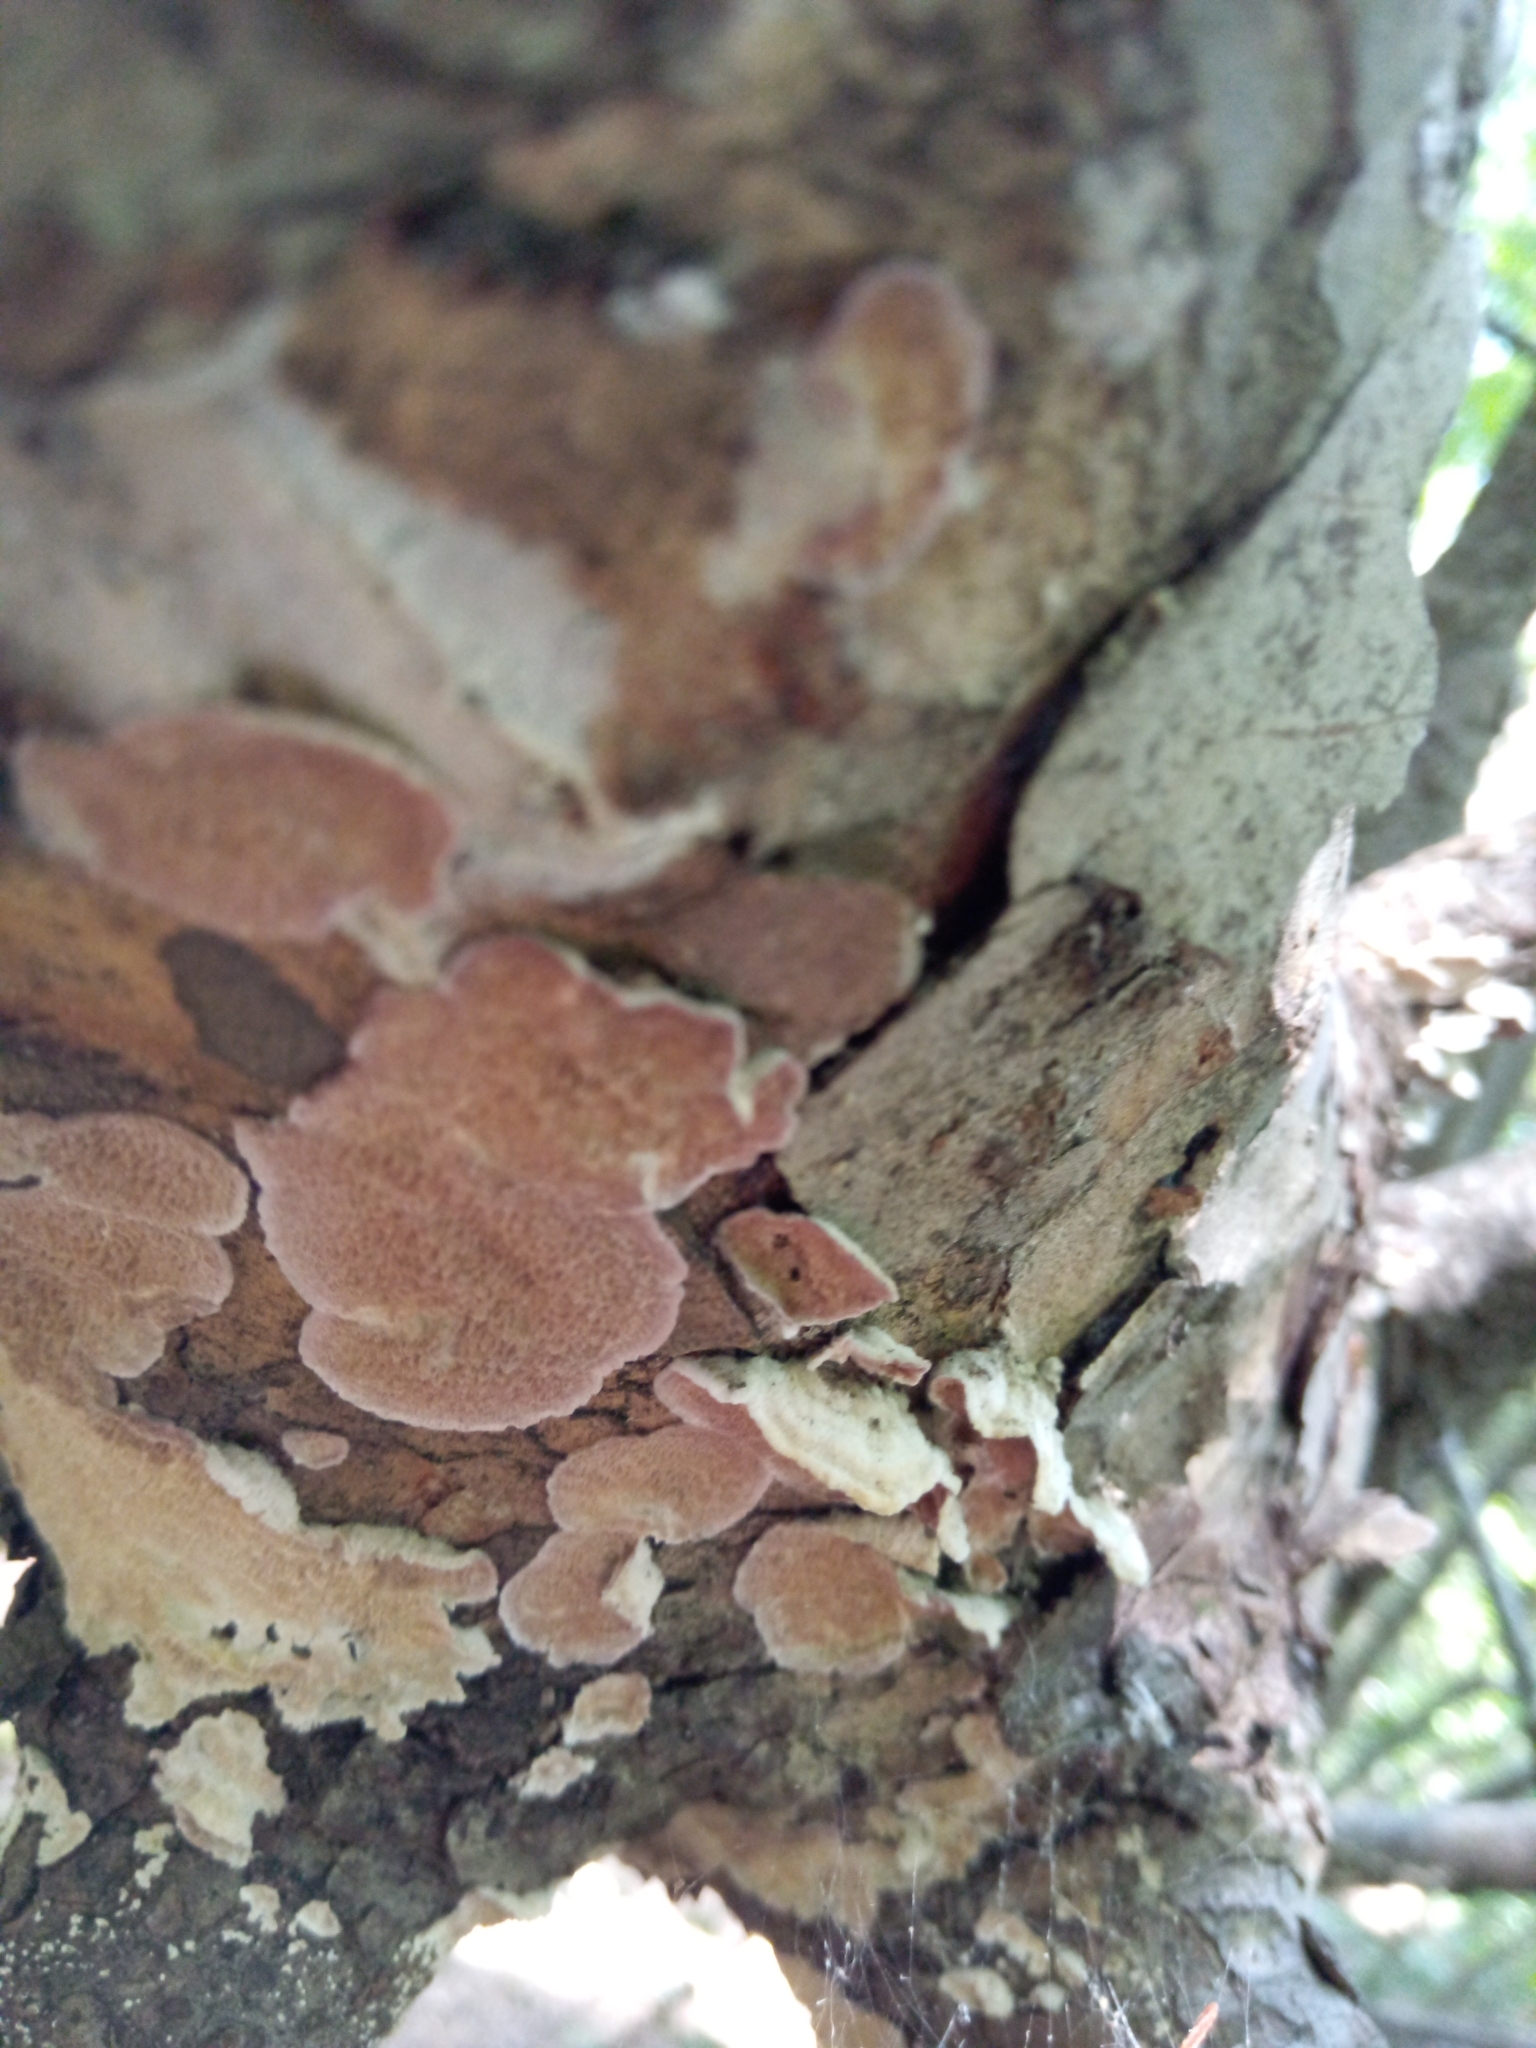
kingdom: Fungi
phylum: Basidiomycota
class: Agaricomycetes
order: Hymenochaetales
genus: Trichaptum
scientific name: Trichaptum abietinum
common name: Purplepore bracket
